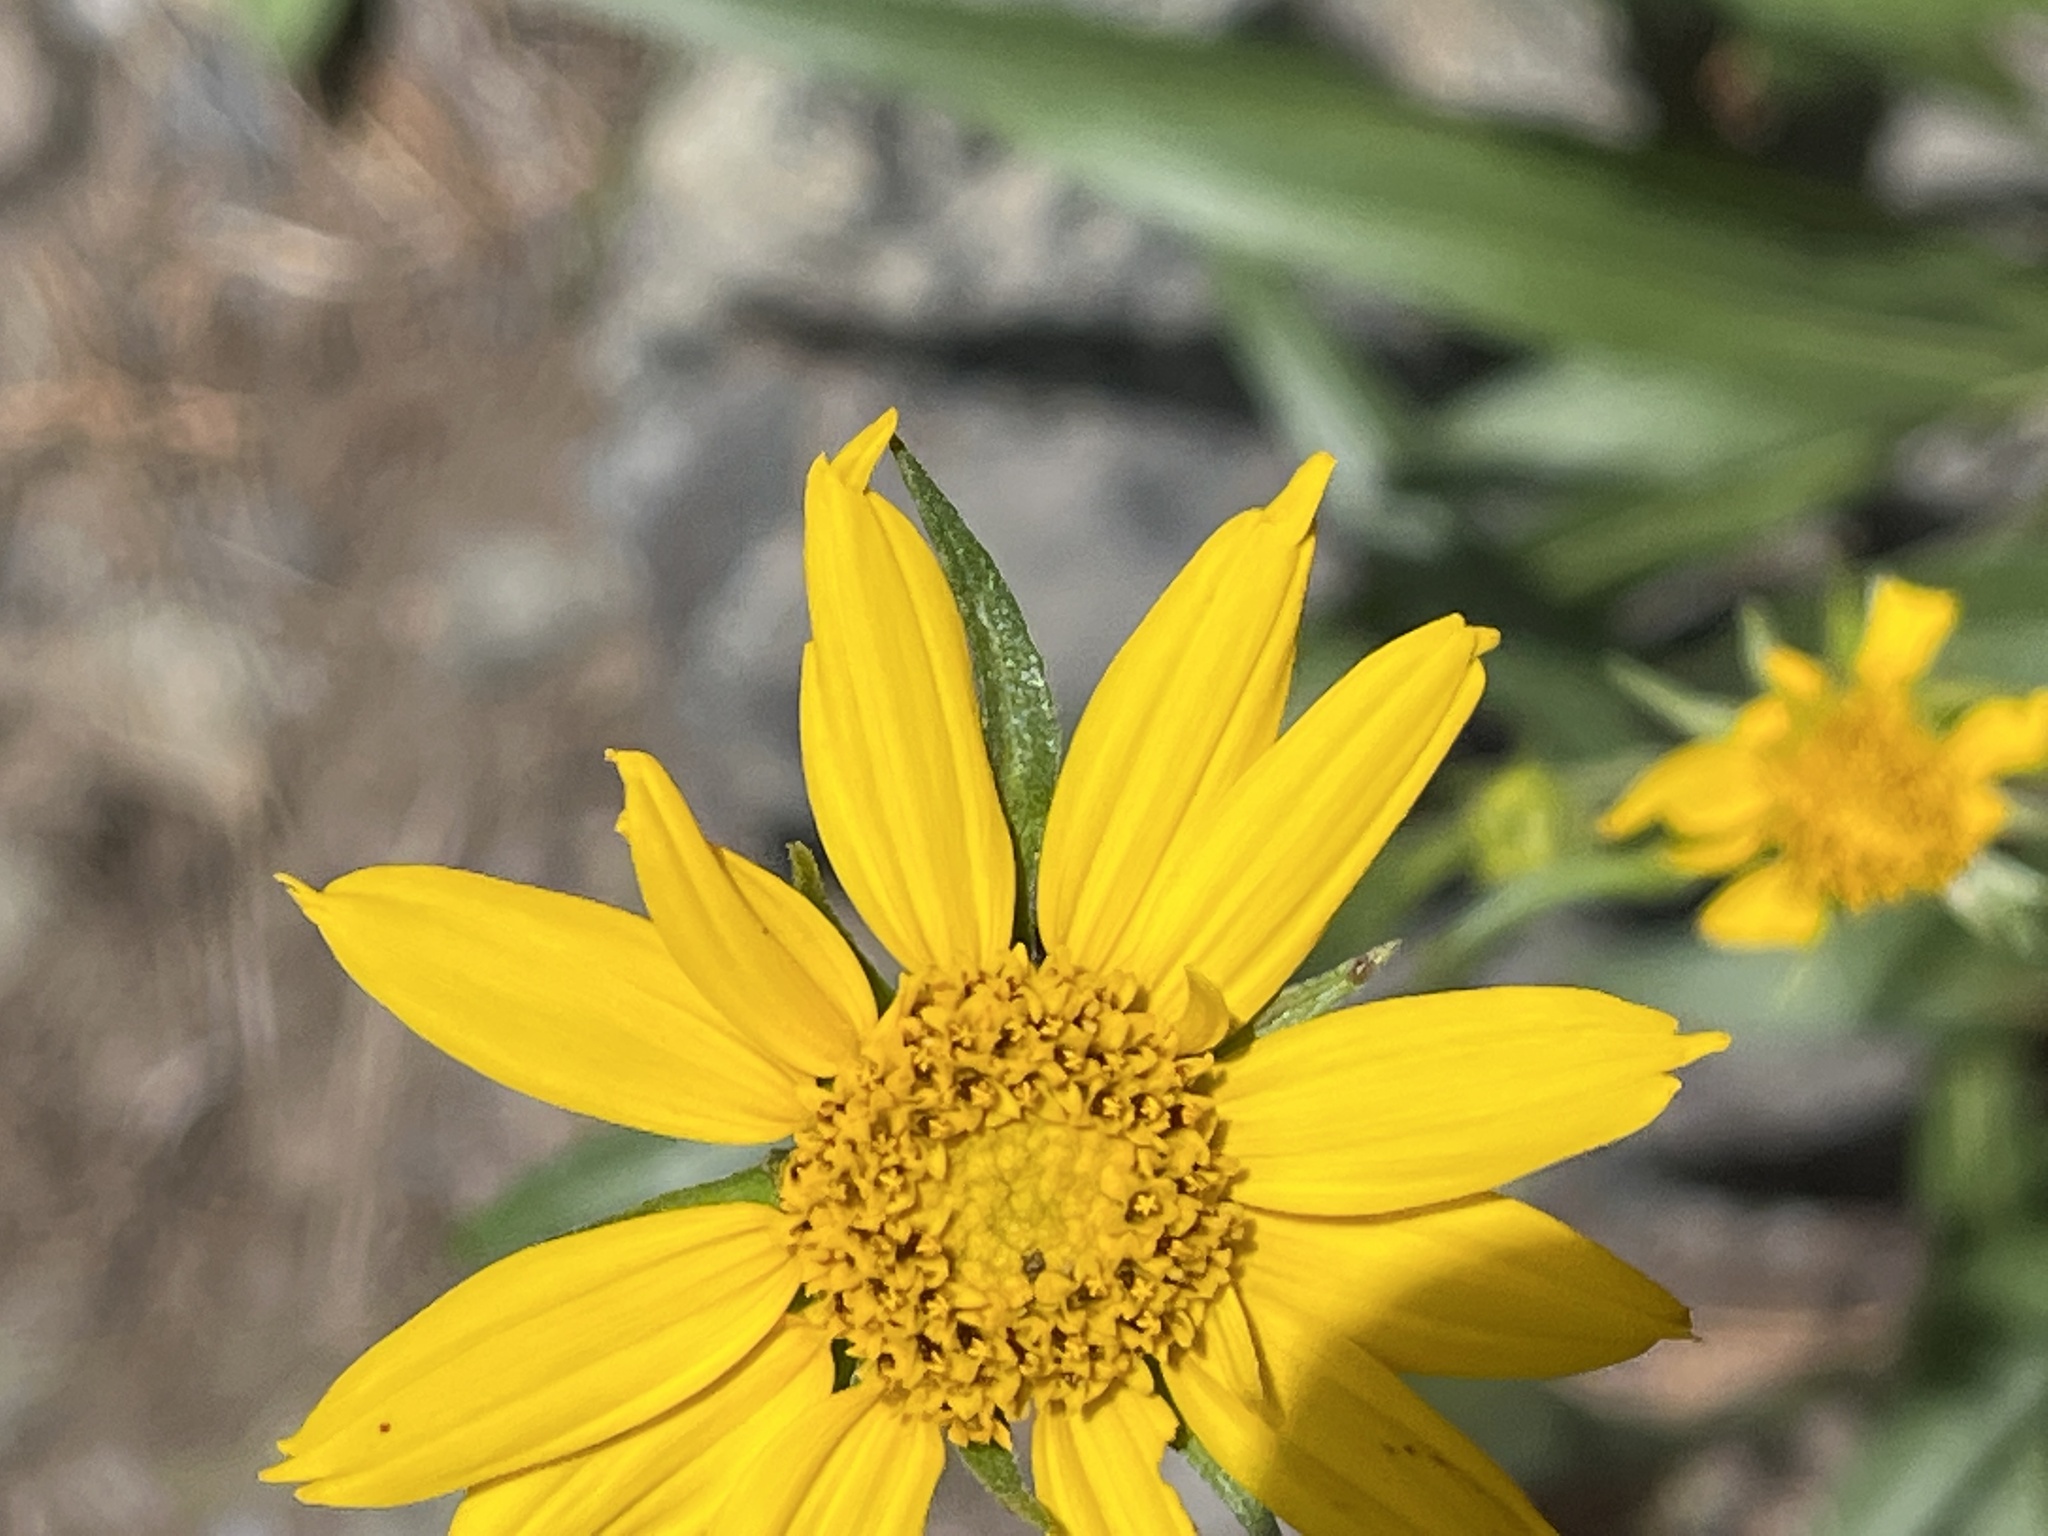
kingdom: Plantae
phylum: Tracheophyta
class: Magnoliopsida
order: Asterales
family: Asteraceae
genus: Helianthella
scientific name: Helianthella californica
